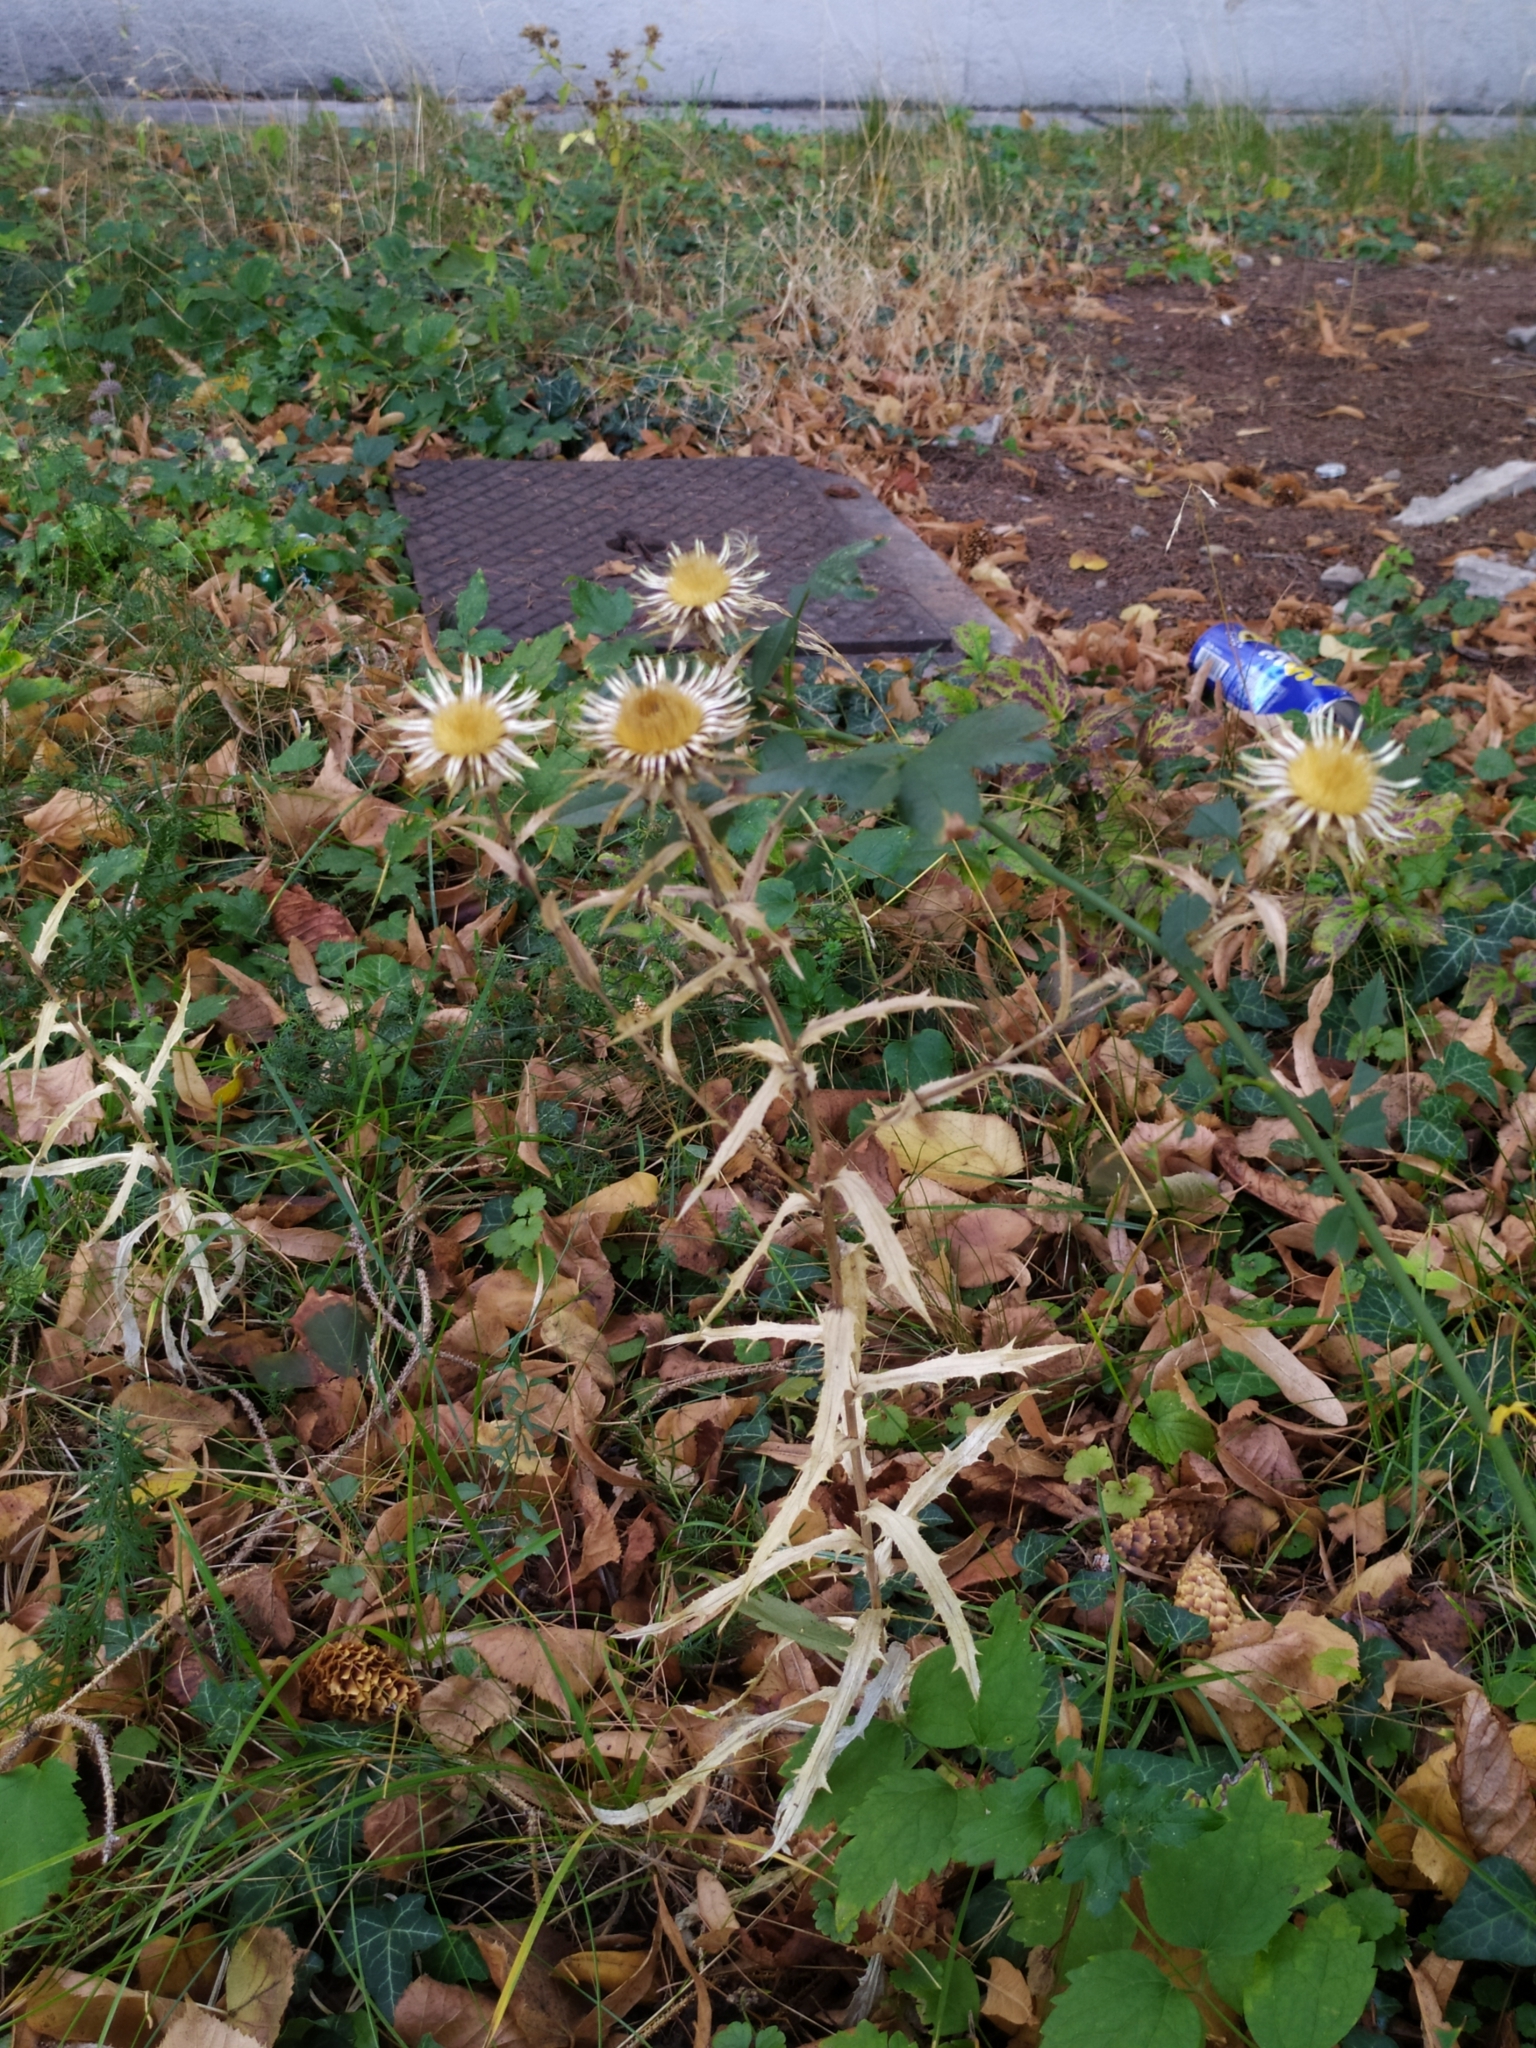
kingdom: Plantae
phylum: Tracheophyta
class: Magnoliopsida
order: Asterales
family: Asteraceae
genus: Carlina
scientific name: Carlina vulgaris
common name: Carline thistle
